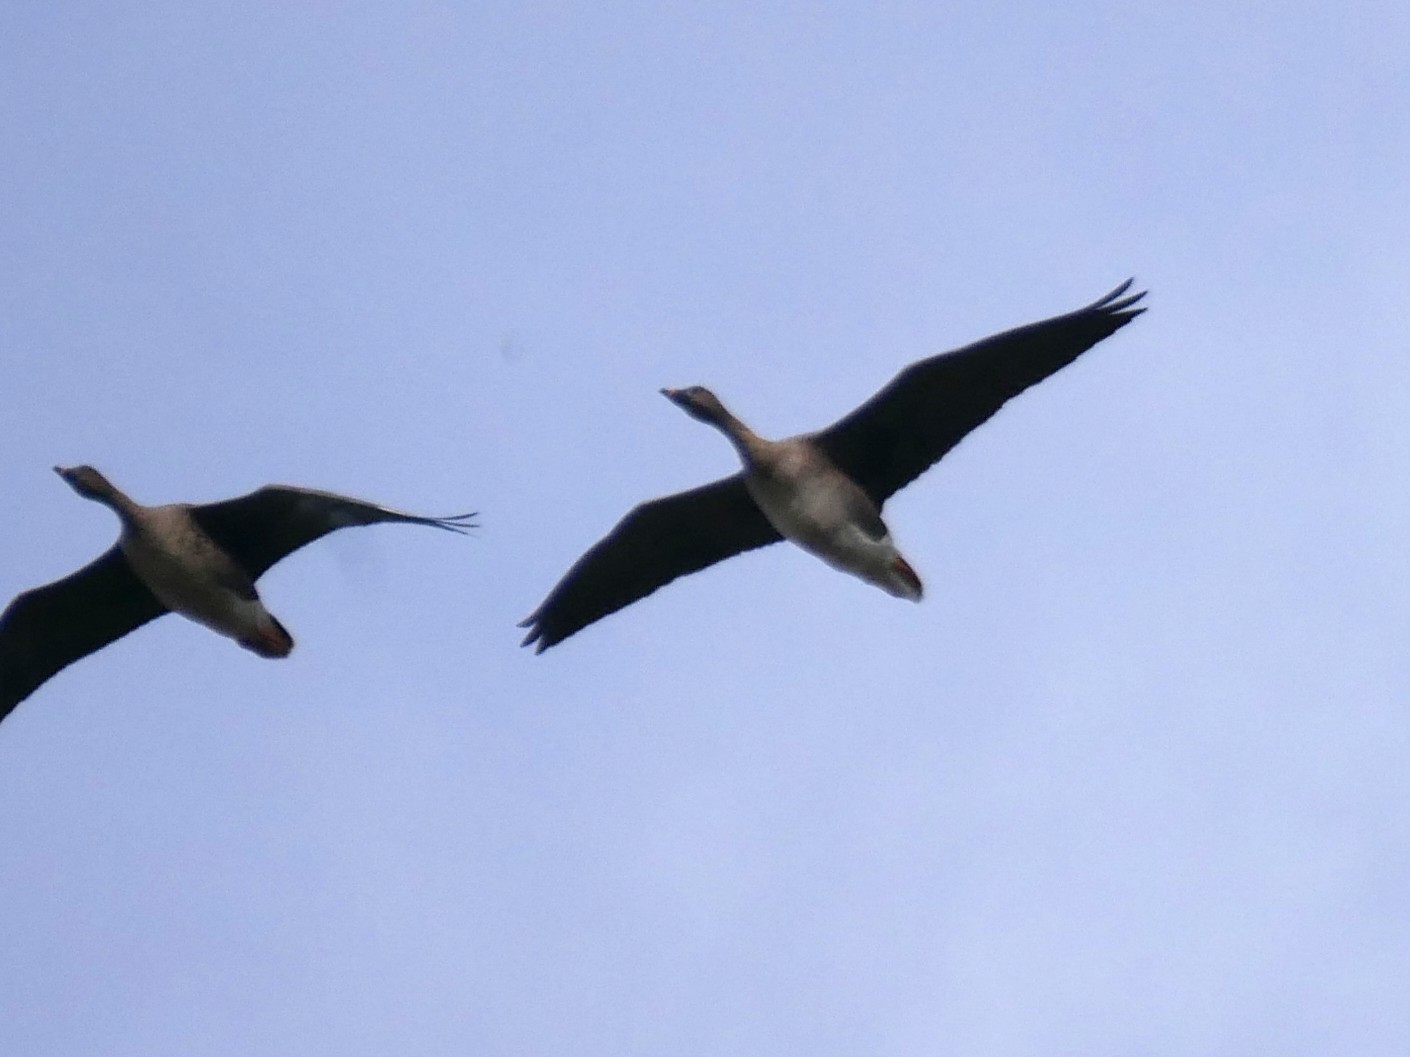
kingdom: Animalia
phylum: Chordata
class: Aves
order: Anseriformes
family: Anatidae
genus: Anser
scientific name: Anser serrirostris
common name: Tundra bean goose
